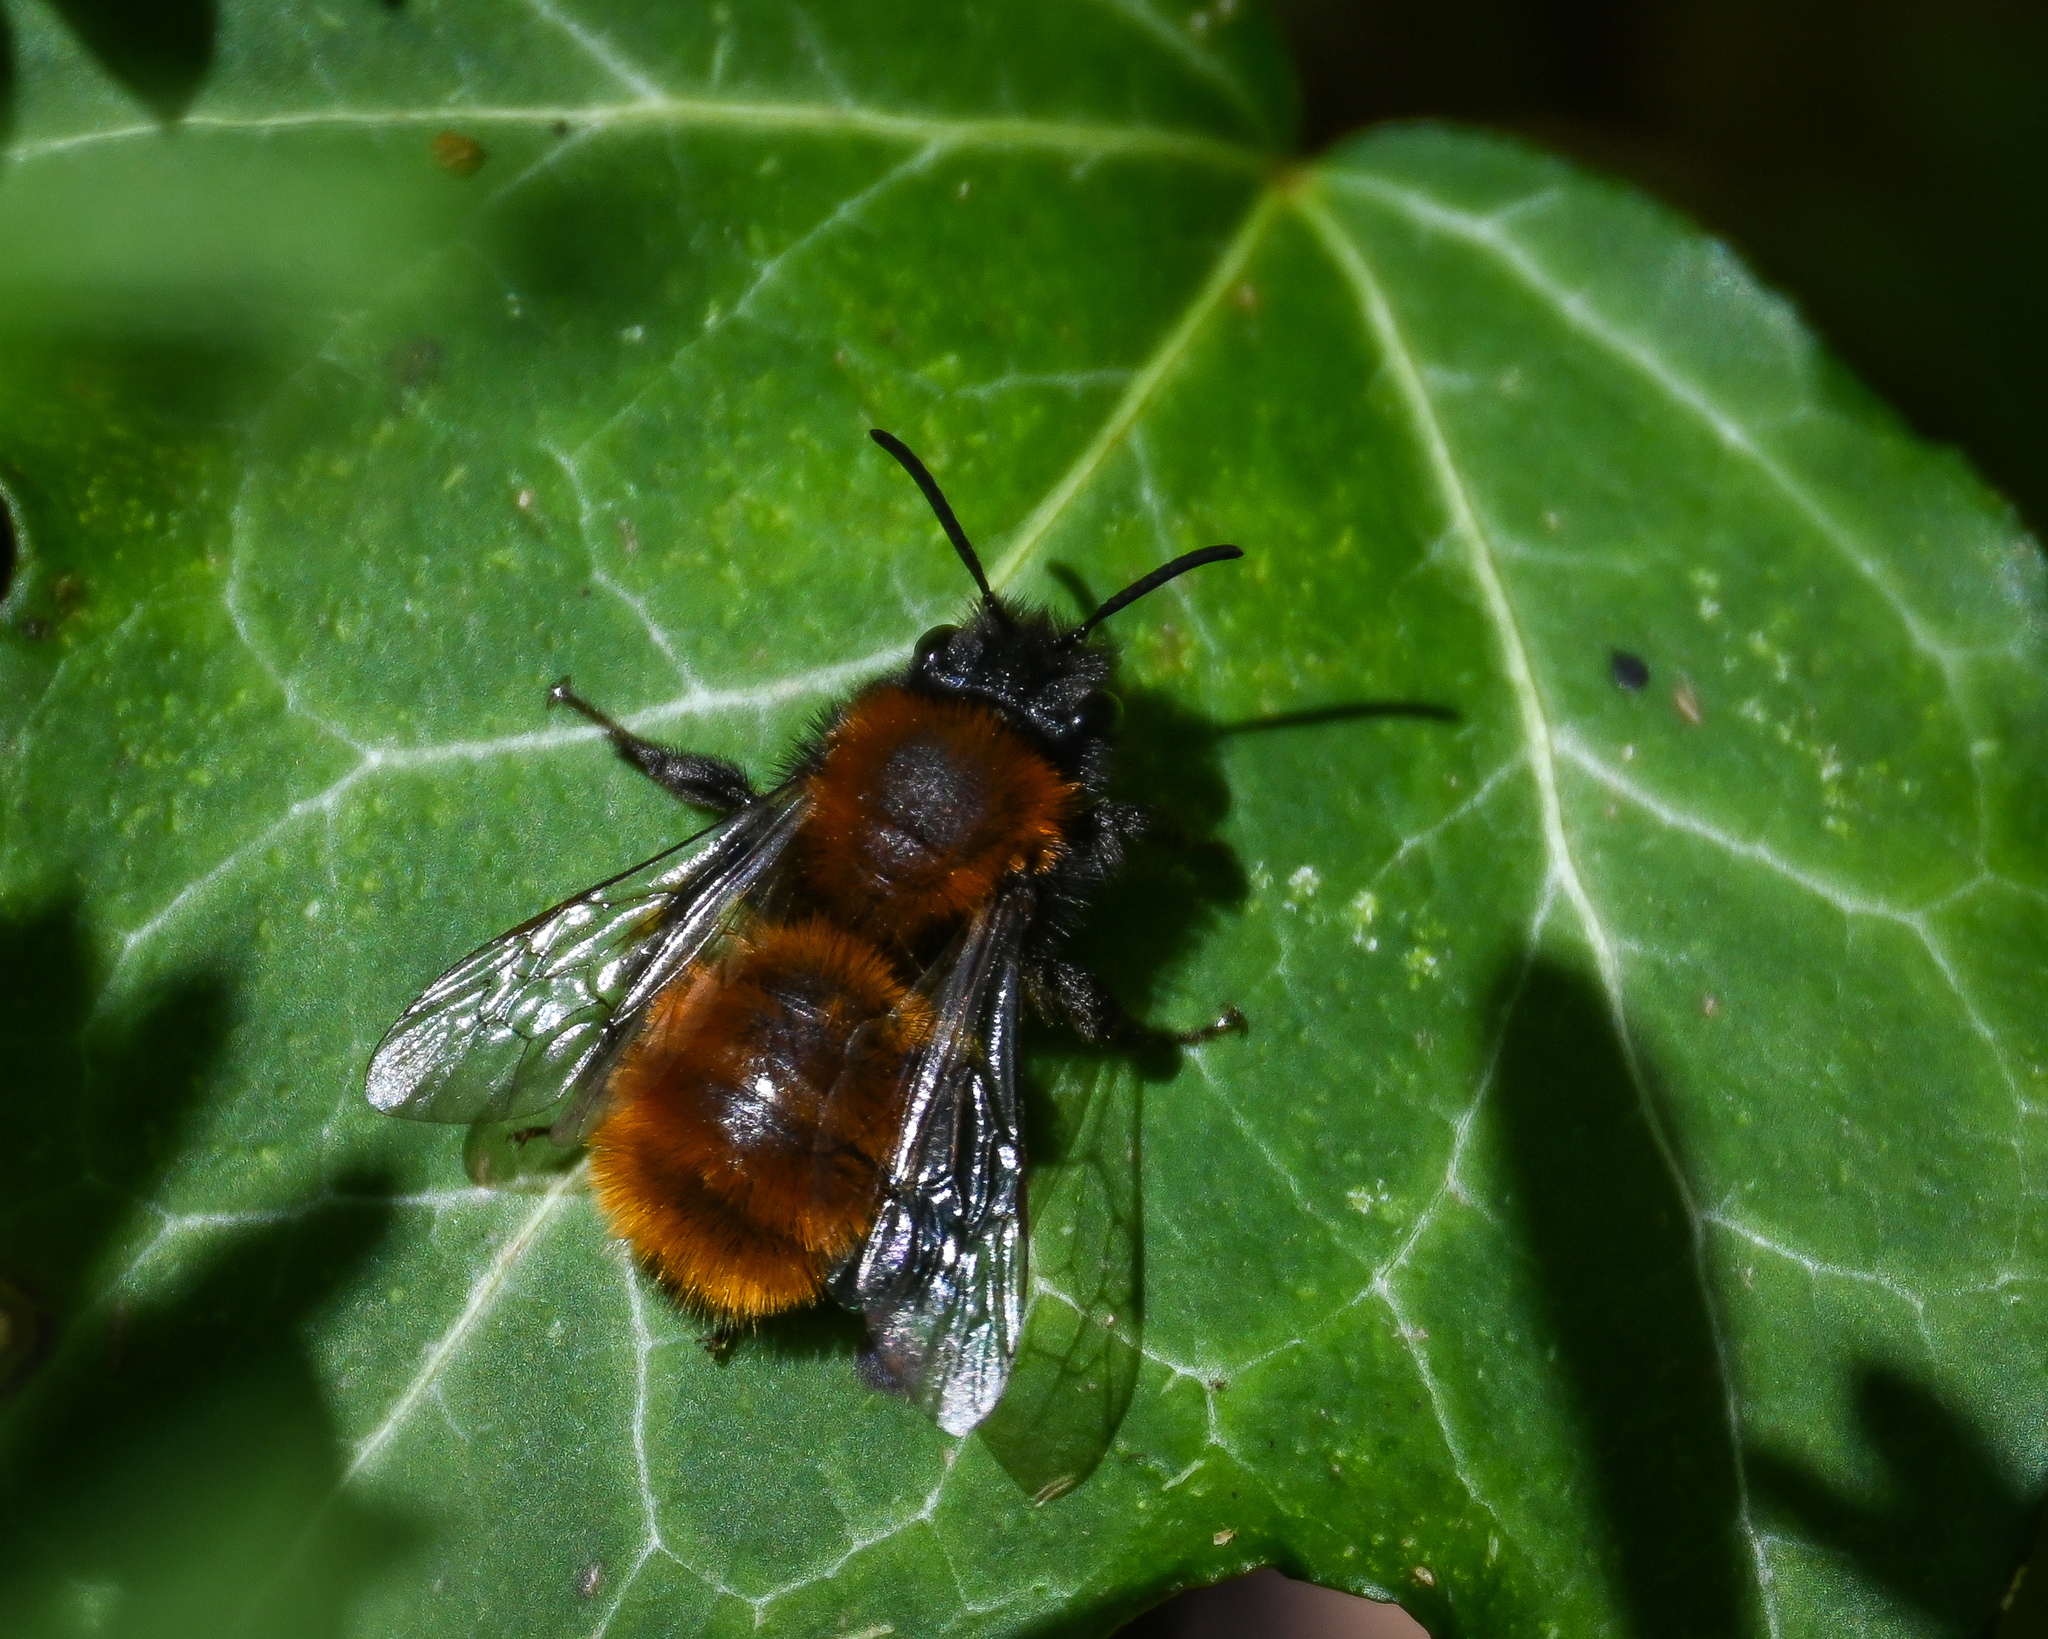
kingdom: Animalia
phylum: Arthropoda
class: Insecta
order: Hymenoptera
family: Andrenidae
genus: Andrena
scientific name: Andrena fulva
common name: Tawny mining bee
